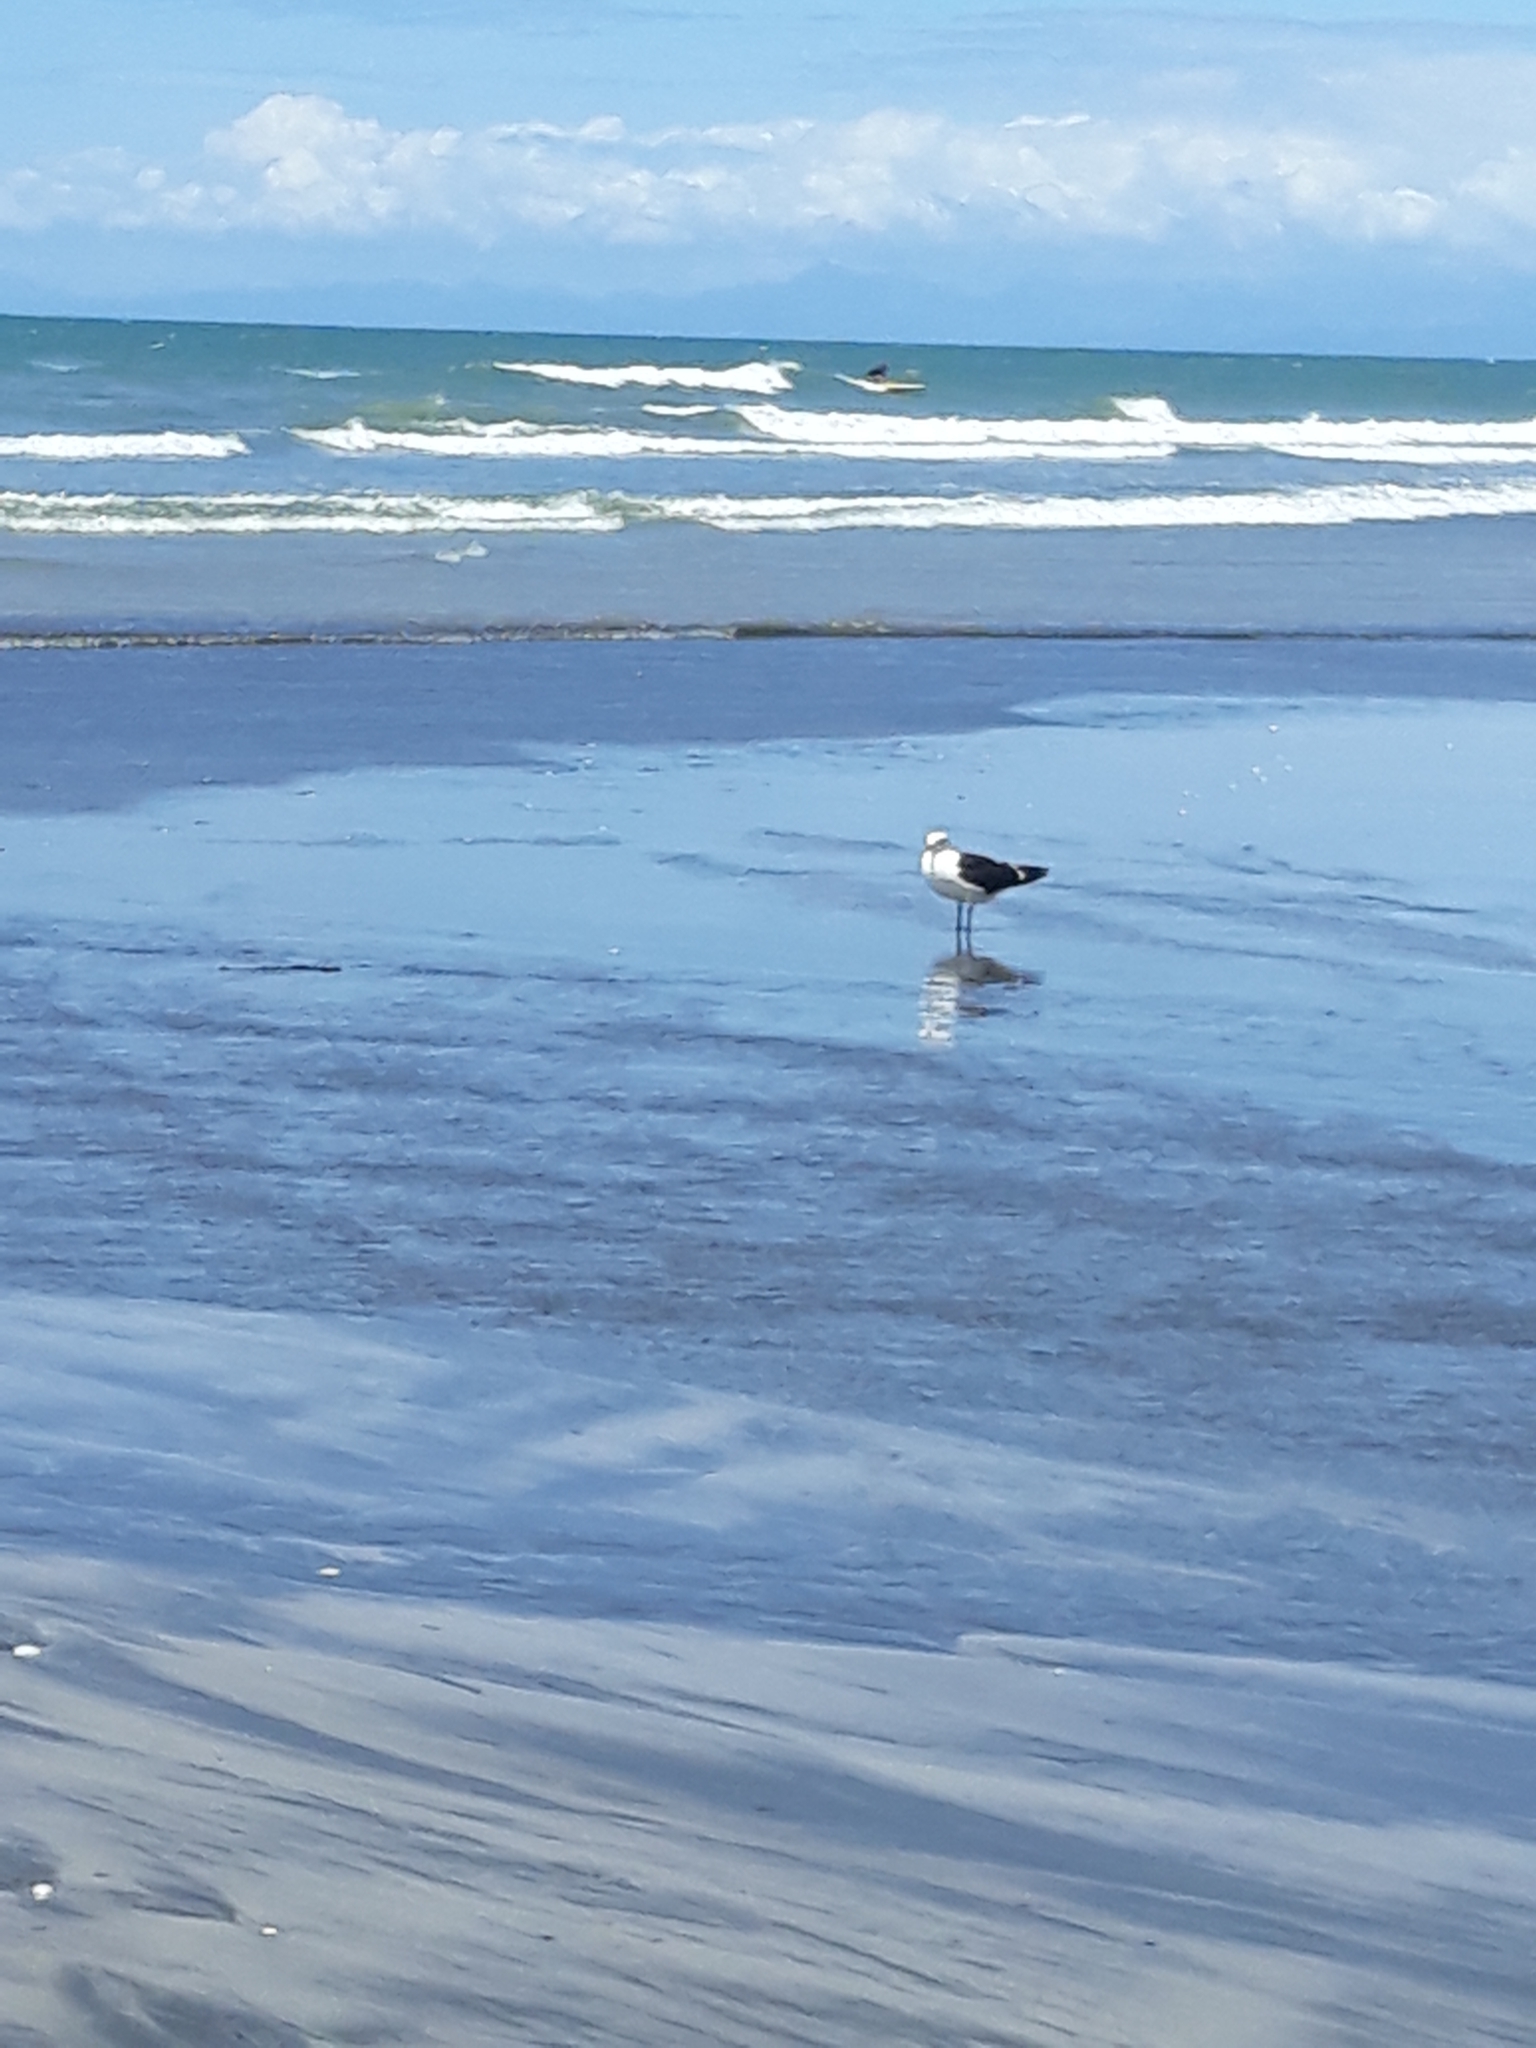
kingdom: Animalia
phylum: Chordata
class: Aves
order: Charadriiformes
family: Laridae
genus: Larus
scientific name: Larus dominicanus
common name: Kelp gull
